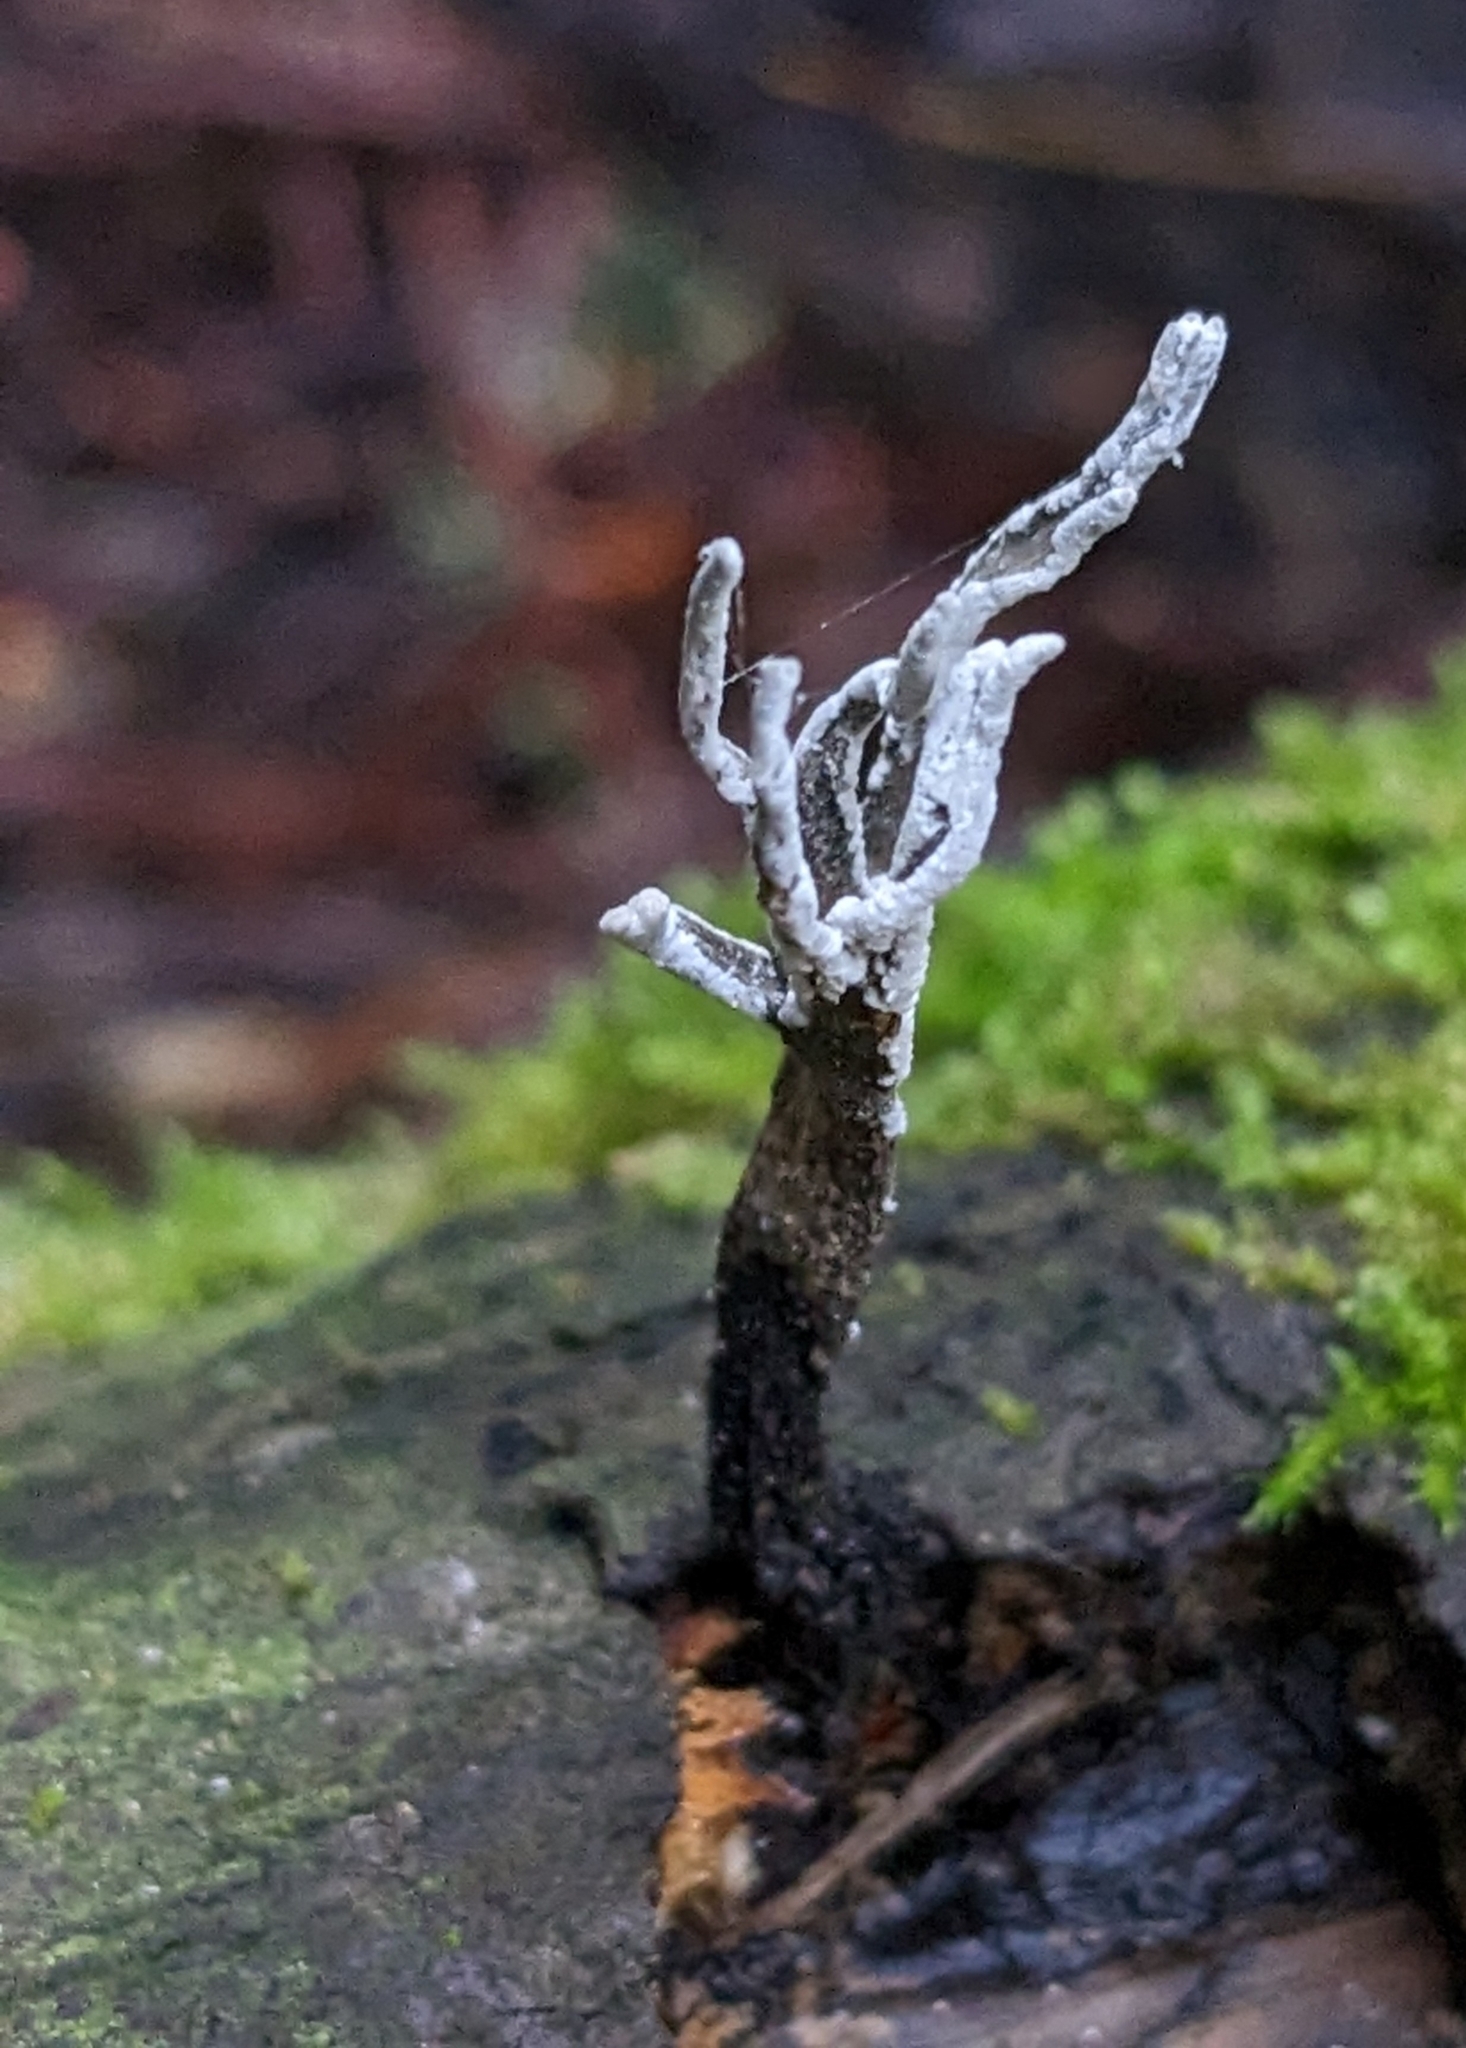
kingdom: Fungi
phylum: Ascomycota
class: Sordariomycetes
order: Xylariales
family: Xylariaceae
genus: Xylaria
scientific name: Xylaria hypoxylon
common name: Candle-snuff fungus
